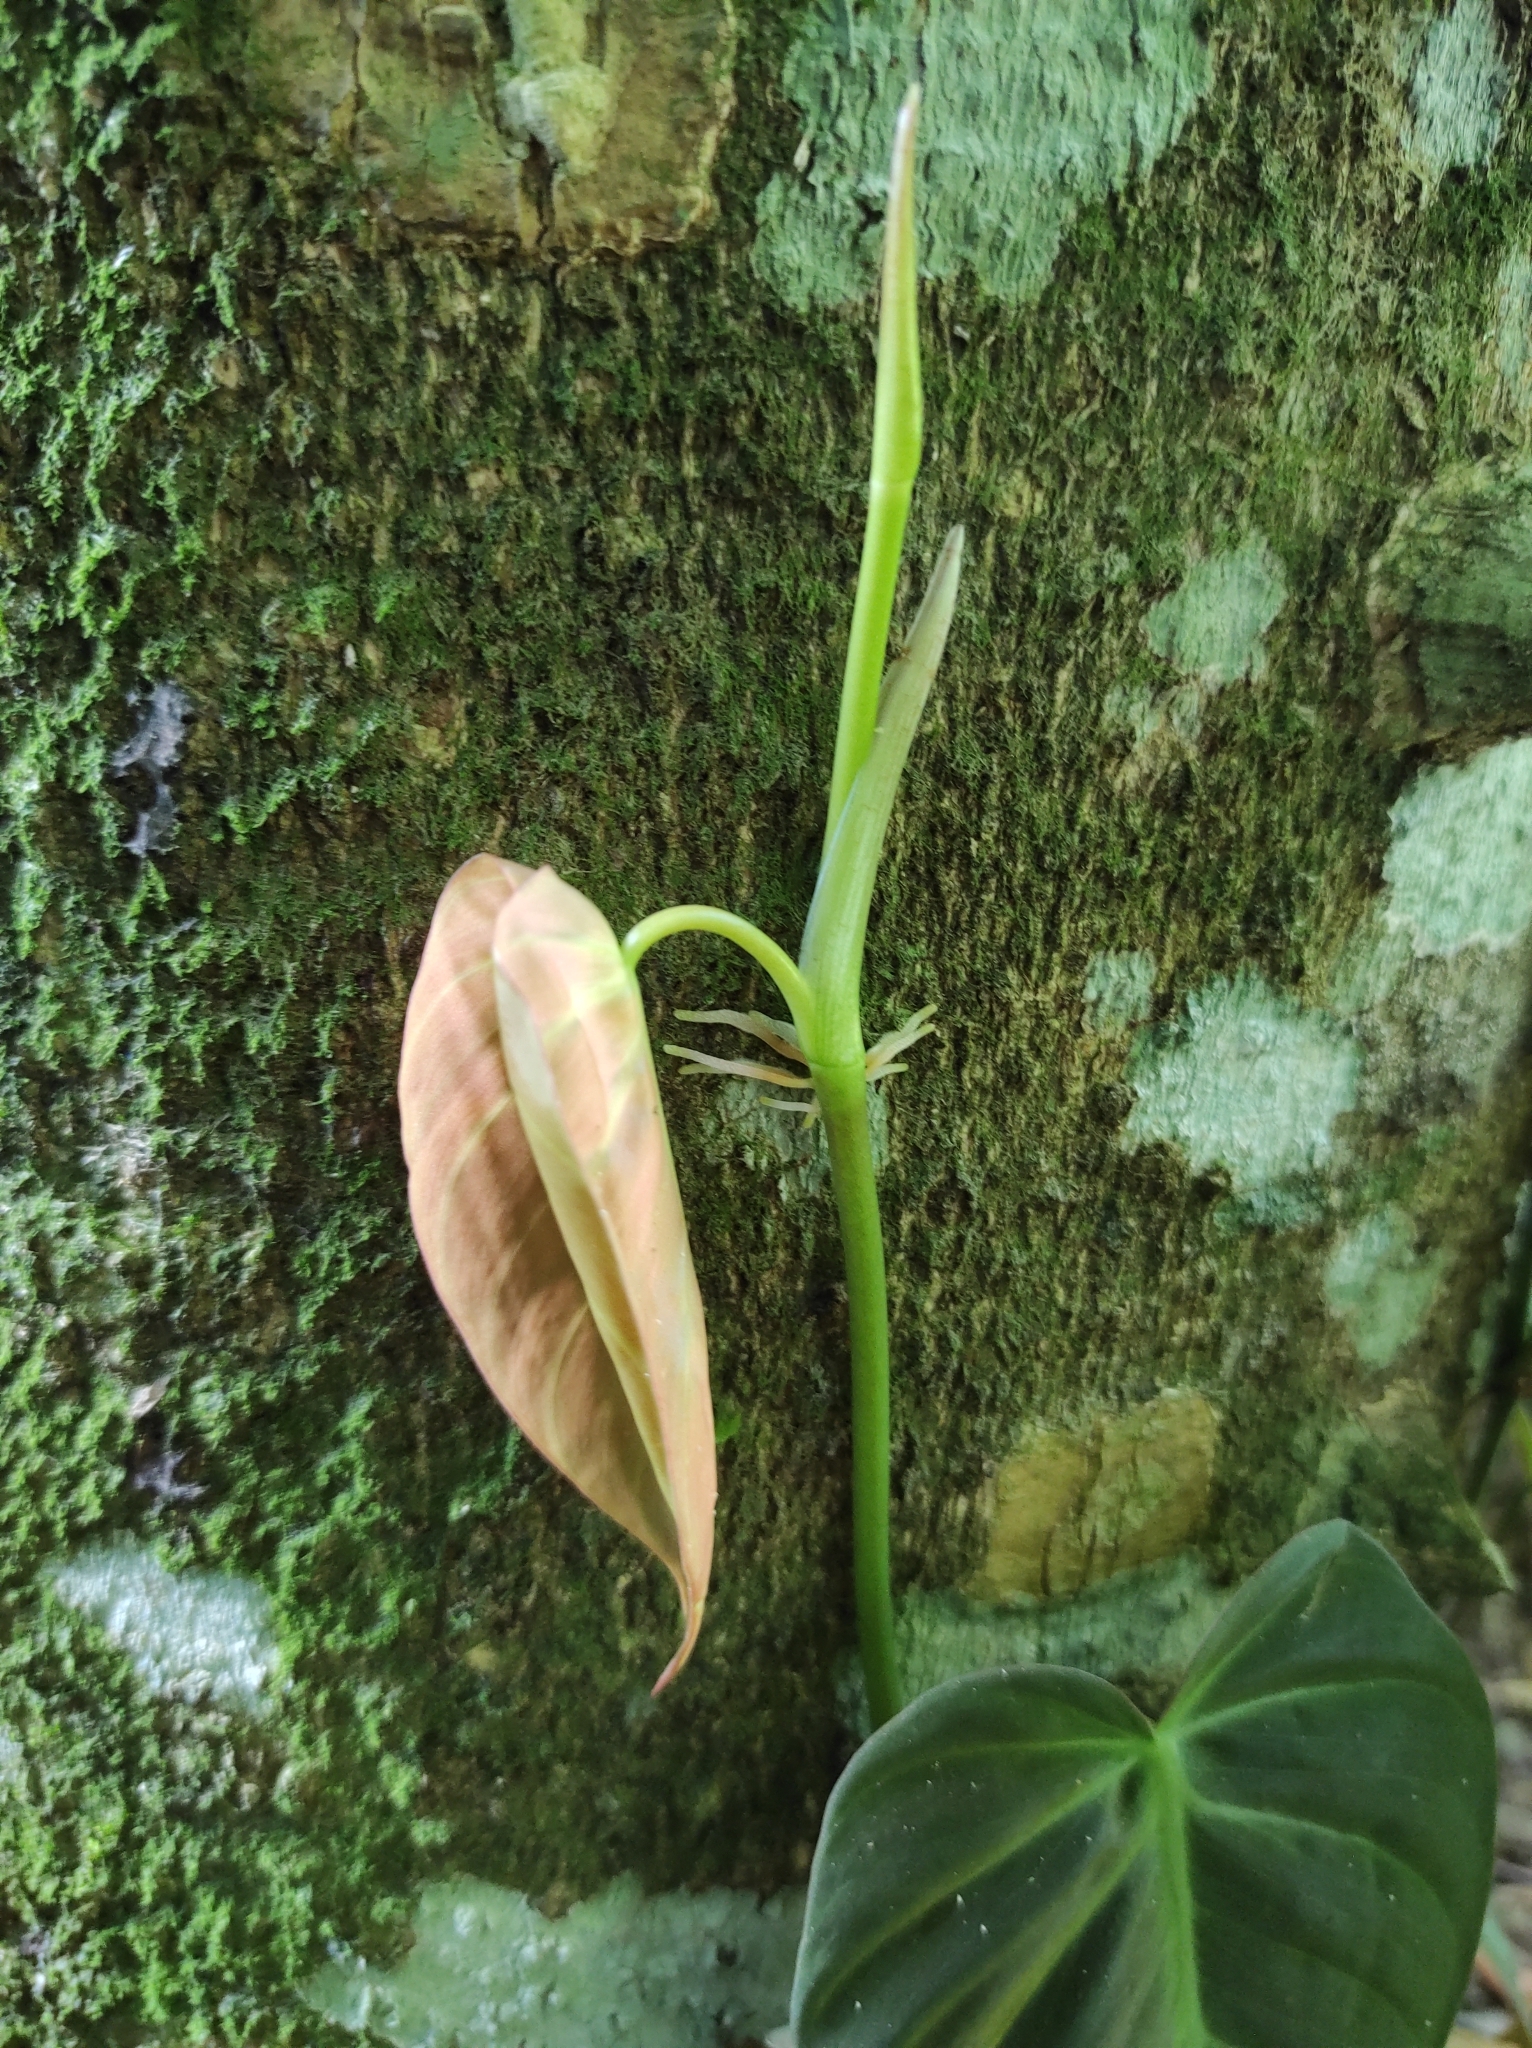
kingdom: Plantae
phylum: Tracheophyta
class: Liliopsida
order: Alismatales
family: Araceae
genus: Philodendron
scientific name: Philodendron hederaceum
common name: Vilevine
